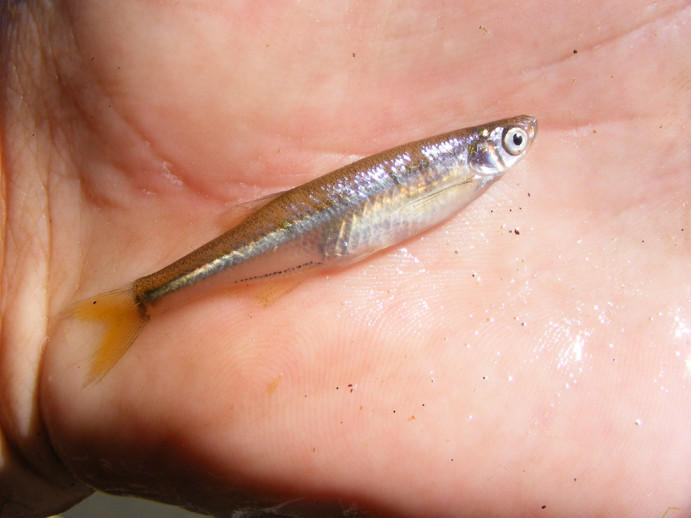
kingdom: Animalia
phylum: Chordata
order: Cypriniformes
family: Cyprinidae
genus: Engraulicypris
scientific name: Engraulicypris brevianalis
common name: River sardine
